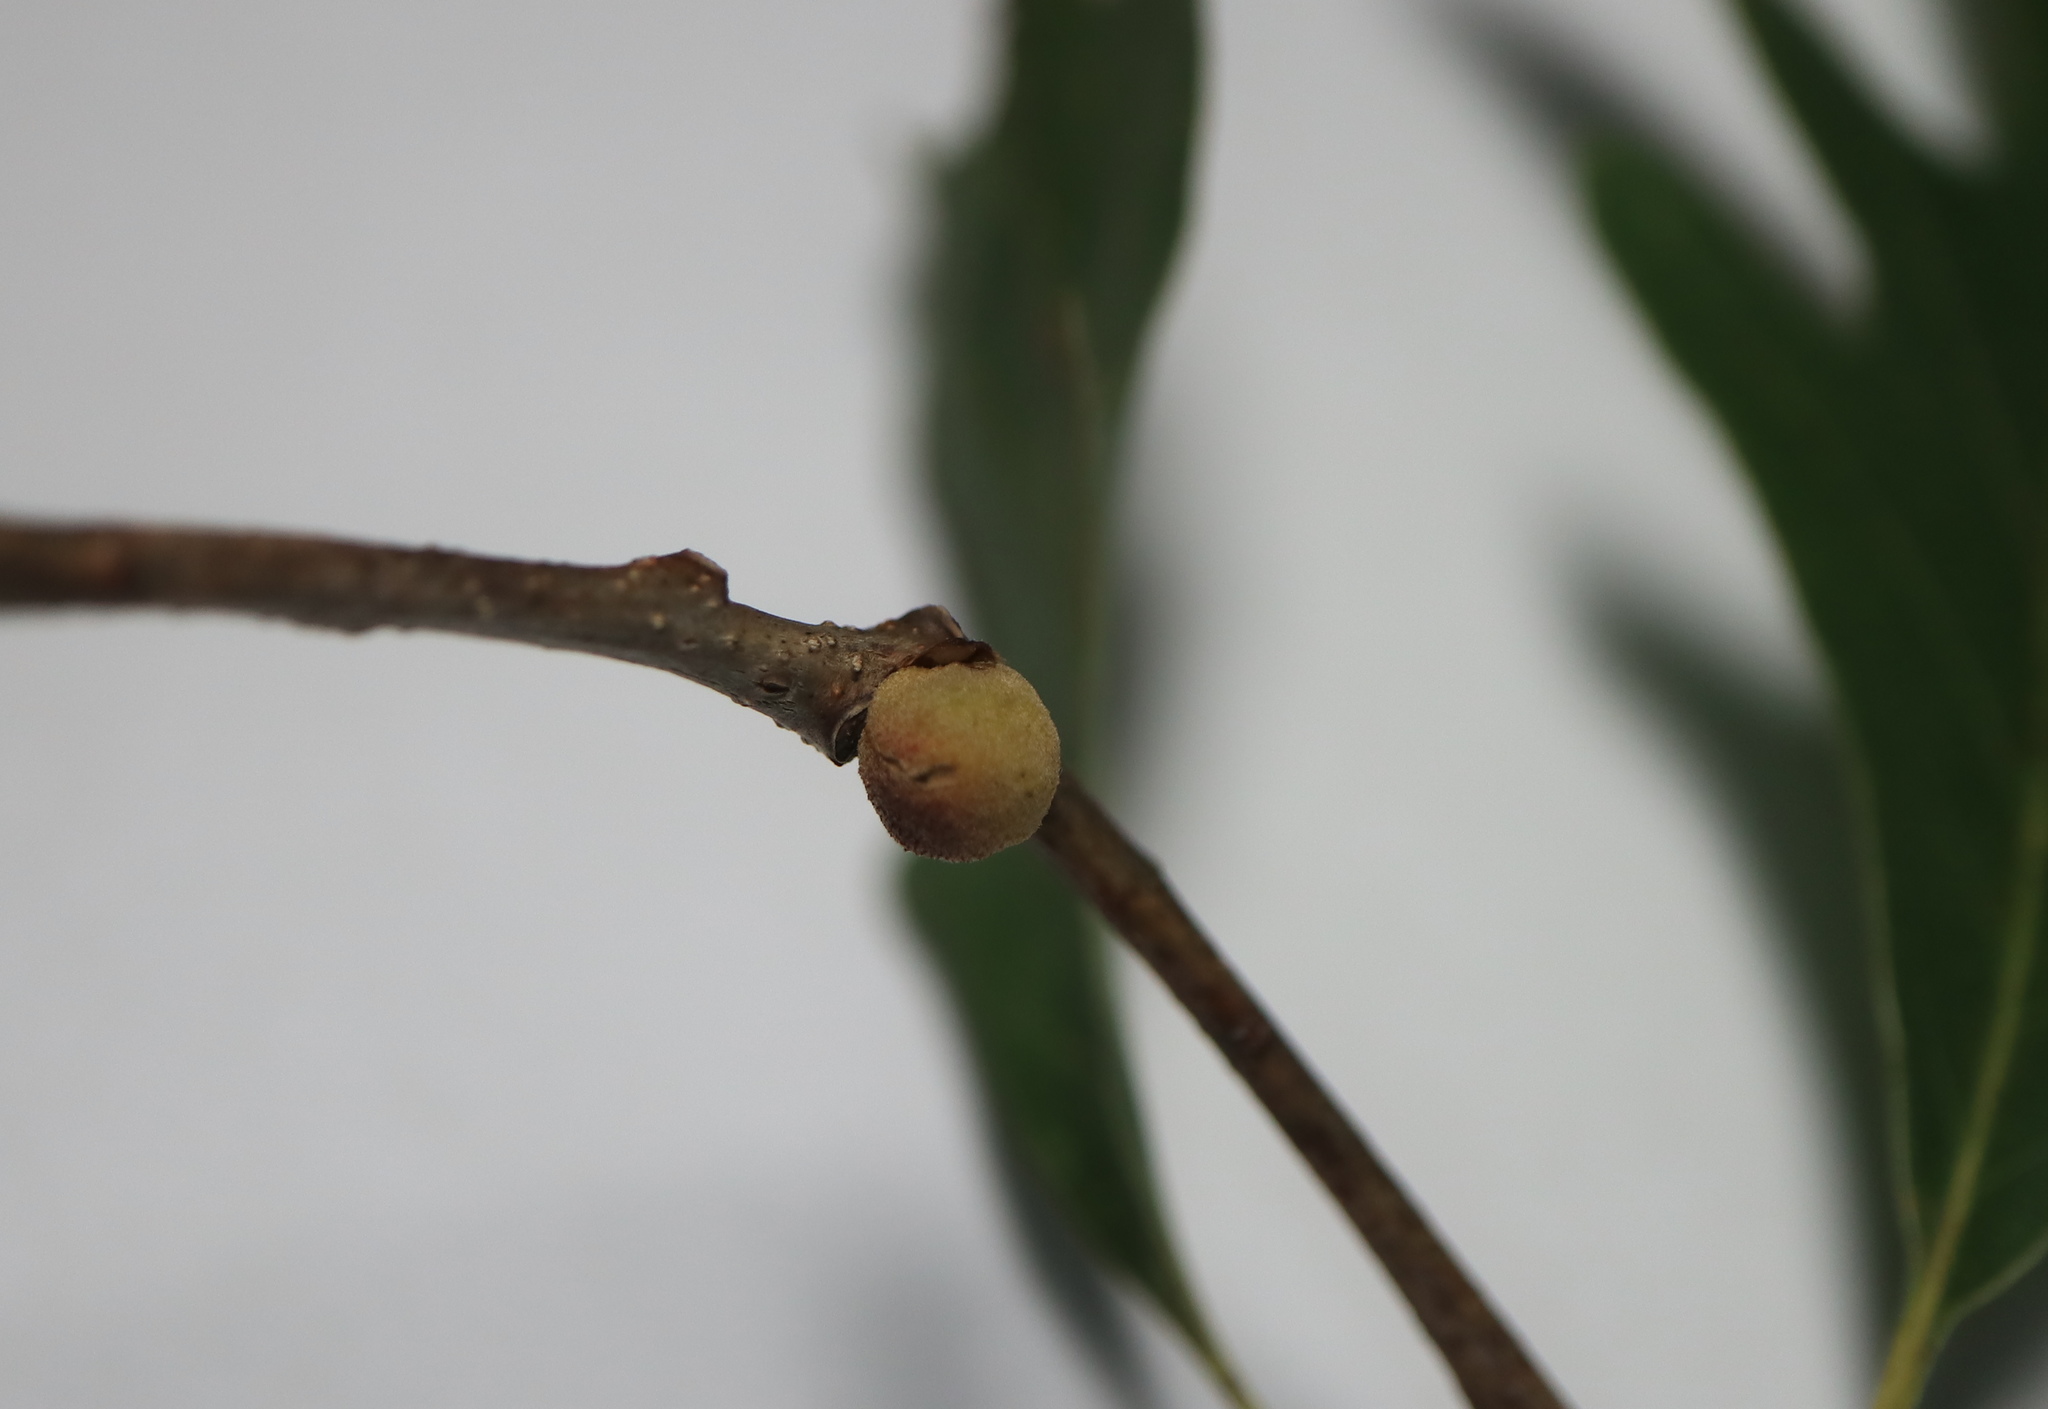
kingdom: Animalia
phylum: Arthropoda
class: Insecta
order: Hymenoptera
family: Cynipidae
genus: Disholcaspis
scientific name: Disholcaspis quercusglobulus
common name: Round bullet gall wasp
